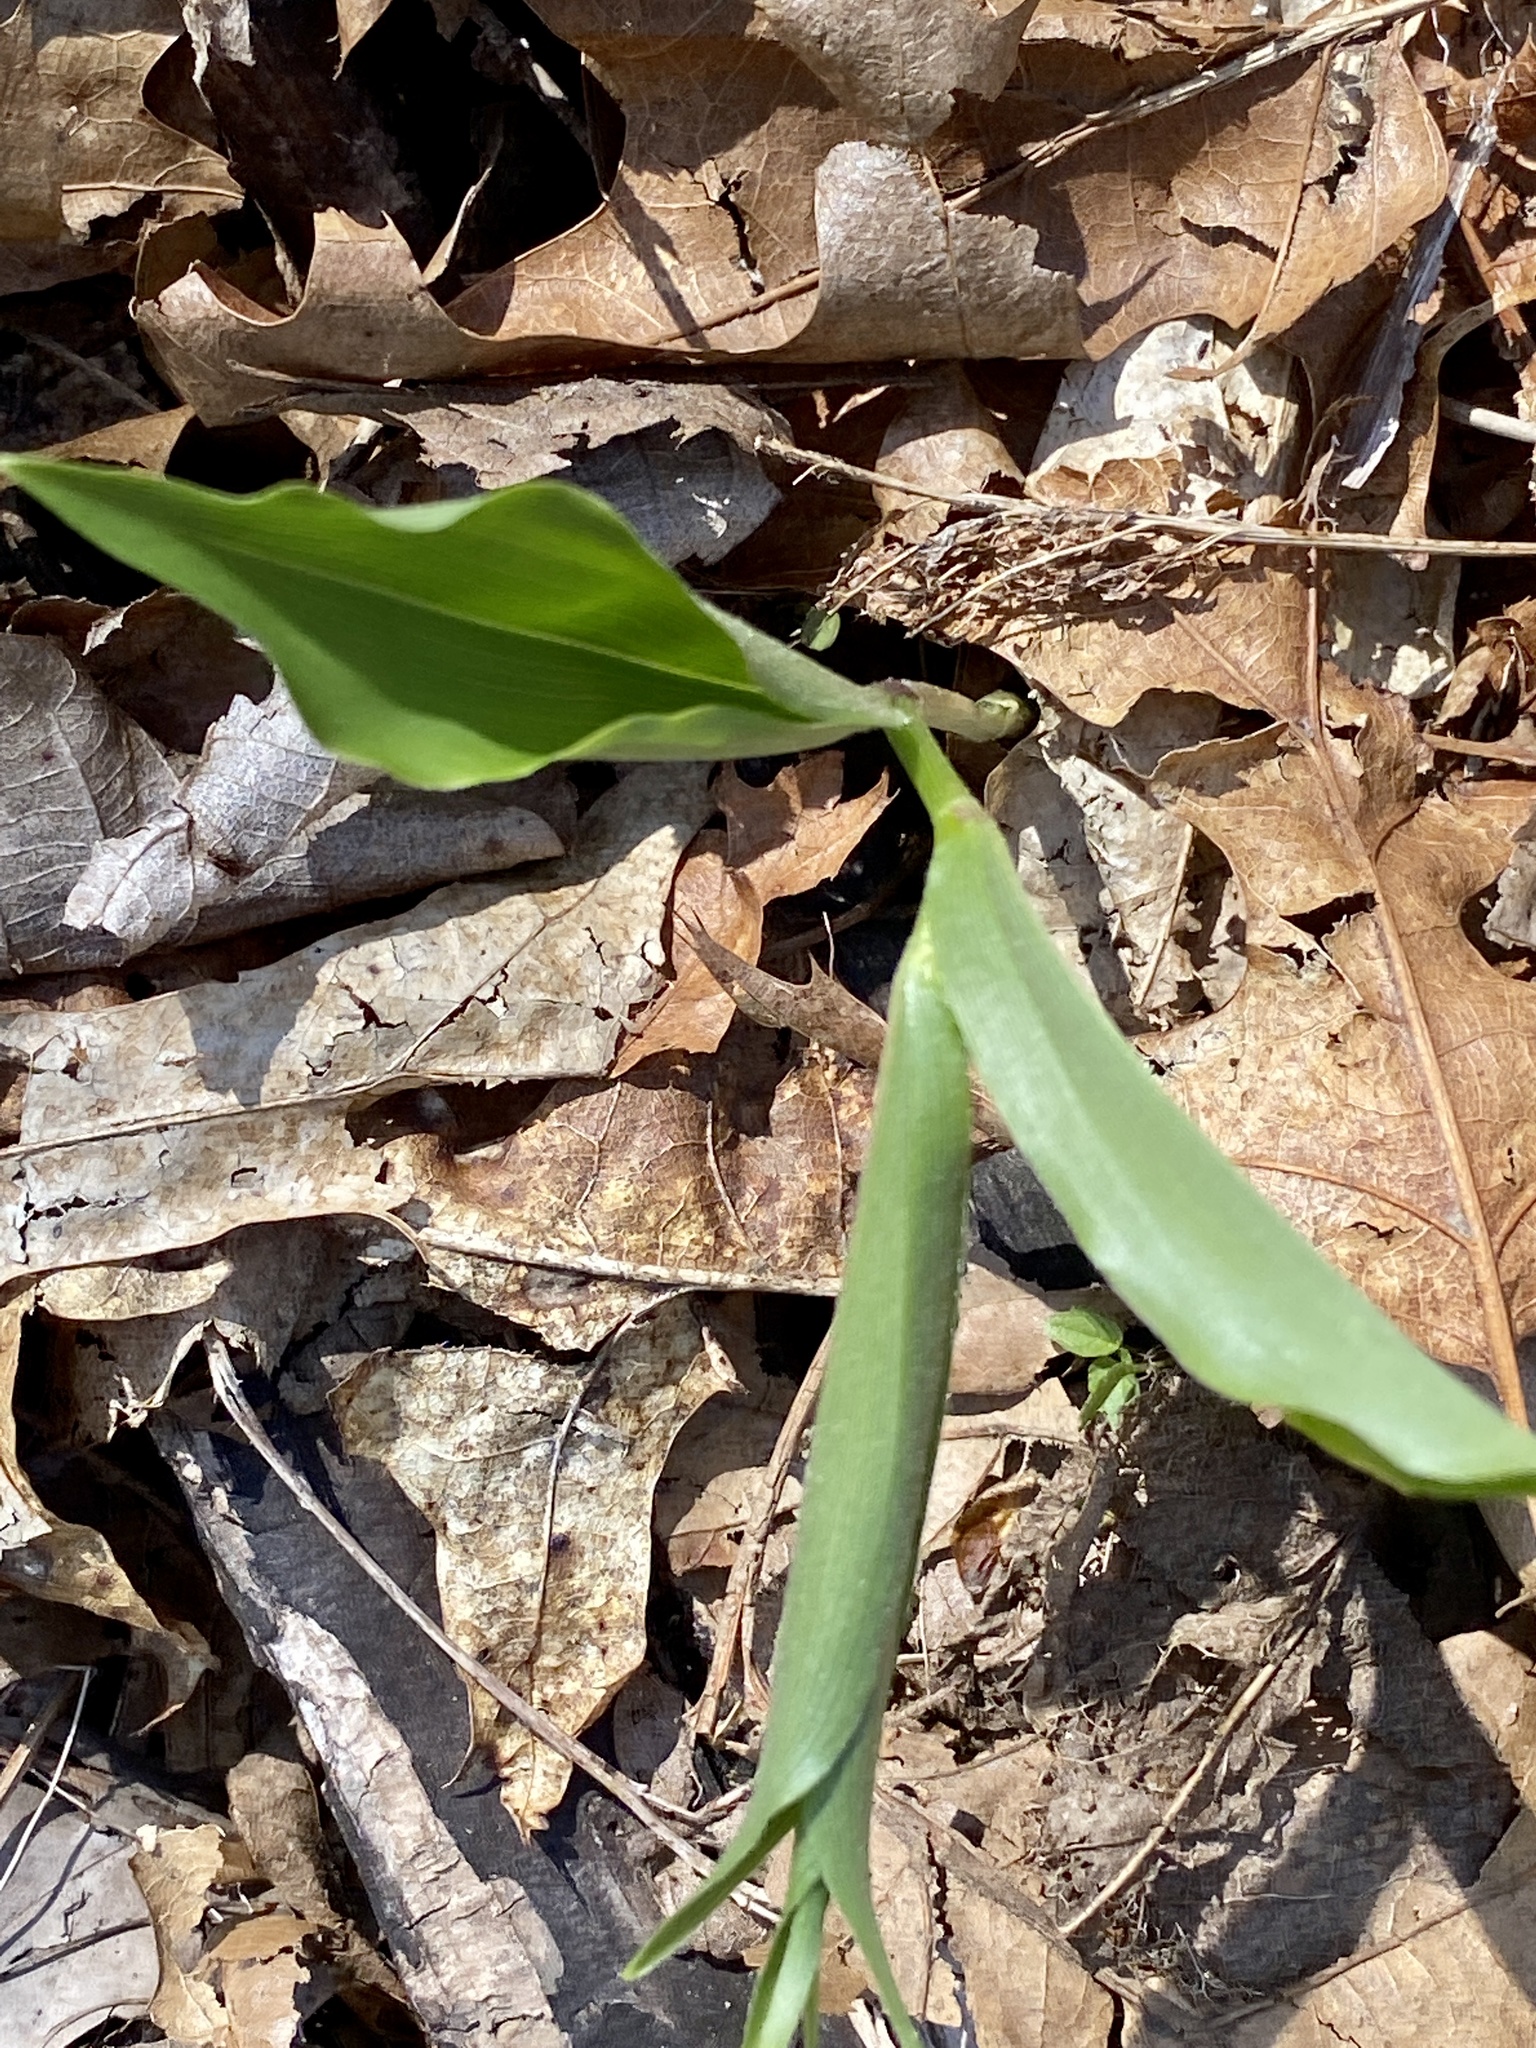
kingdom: Plantae
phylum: Tracheophyta
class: Liliopsida
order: Asparagales
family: Asparagaceae
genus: Maianthemum
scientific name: Maianthemum racemosum
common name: False spikenard
